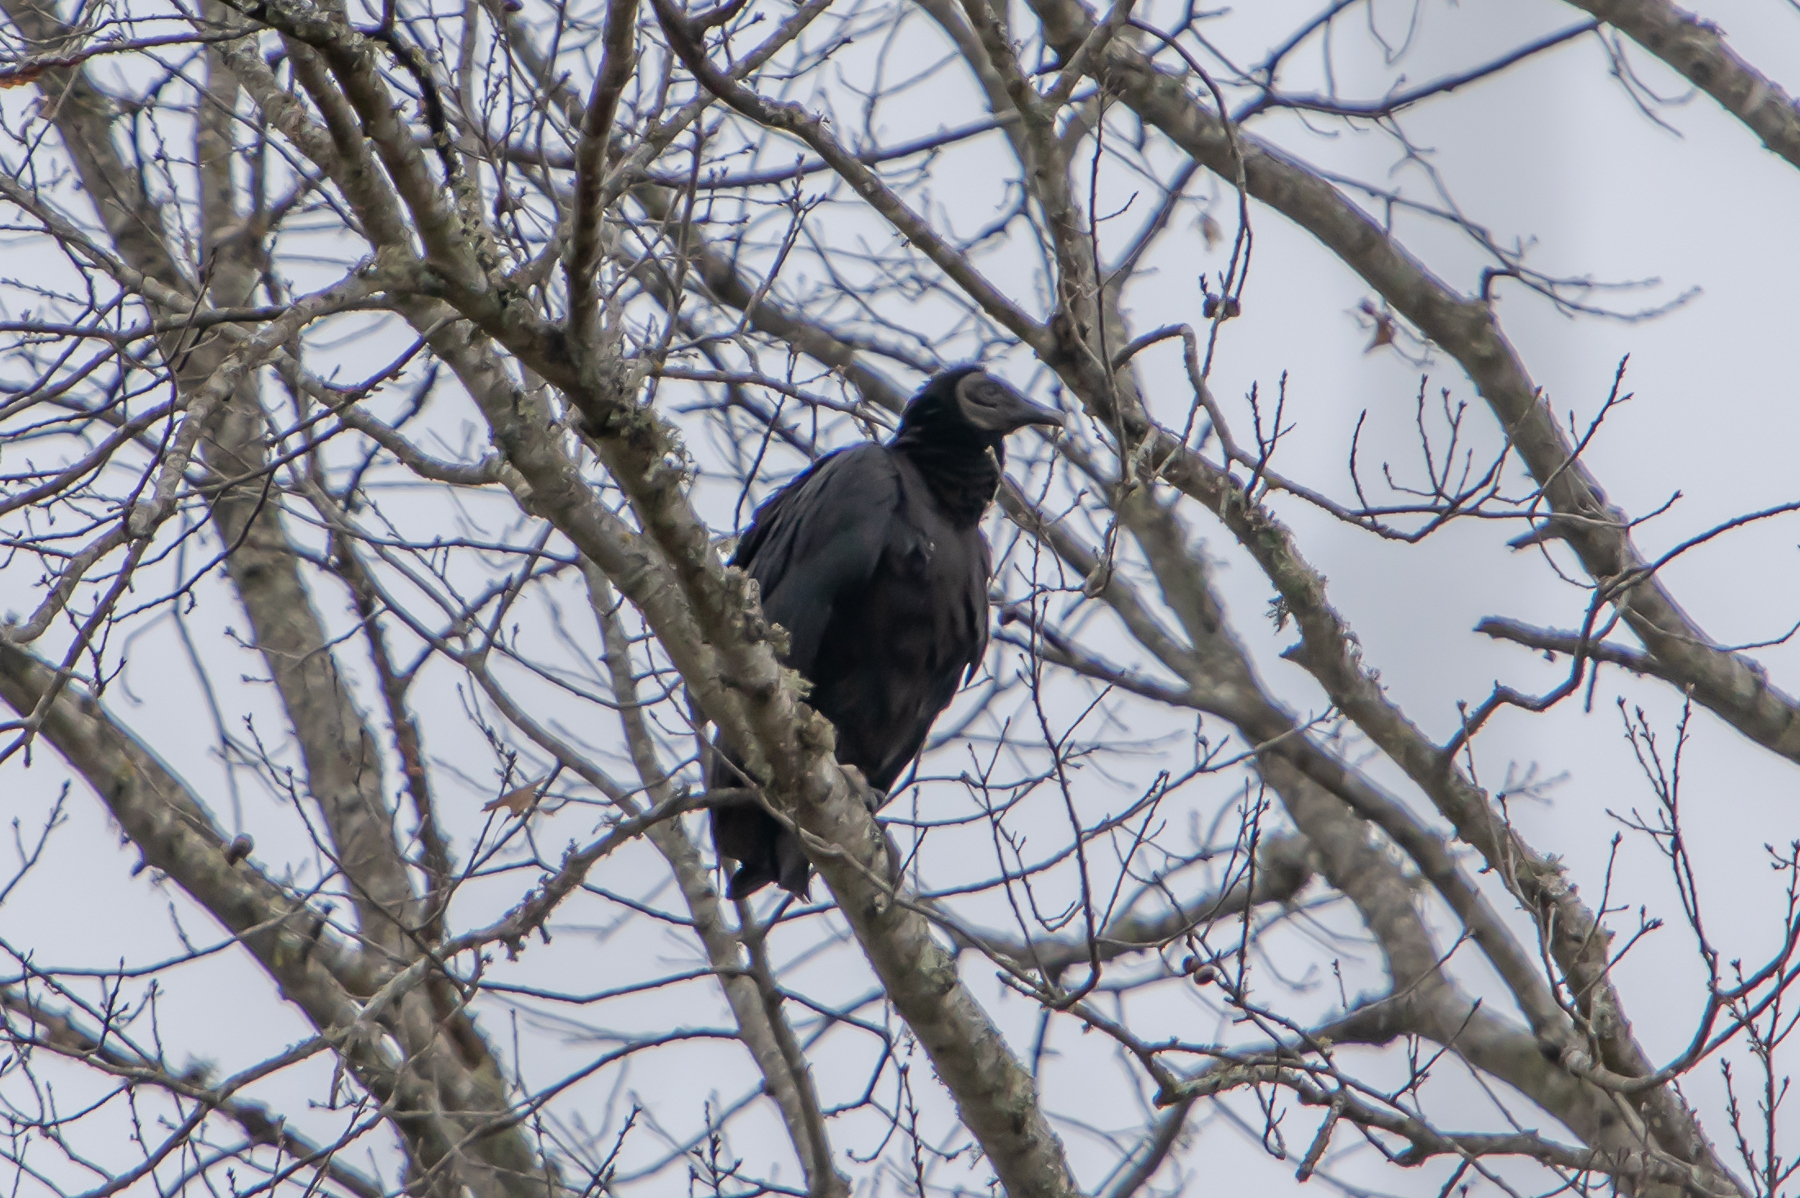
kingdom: Animalia
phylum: Chordata
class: Aves
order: Accipitriformes
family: Cathartidae
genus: Coragyps
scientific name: Coragyps atratus
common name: Black vulture
